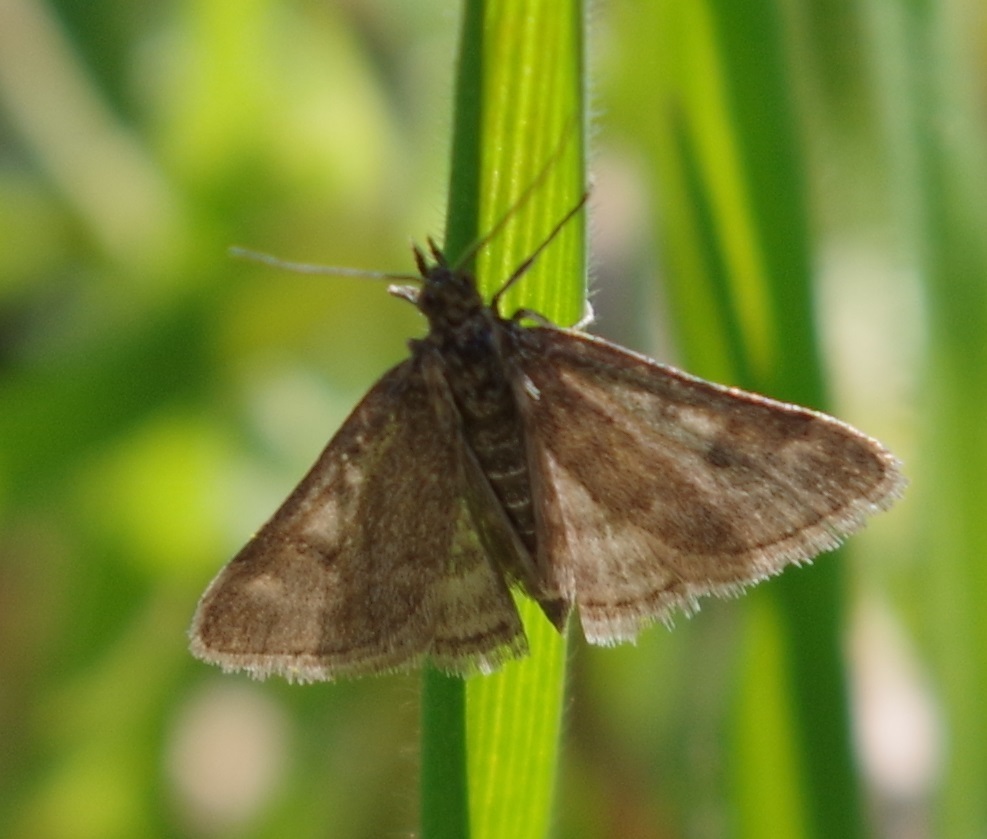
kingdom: Animalia
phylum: Arthropoda
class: Insecta
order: Lepidoptera
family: Crambidae
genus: Pyrausta
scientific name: Pyrausta despicata
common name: Straw-barred pearl
